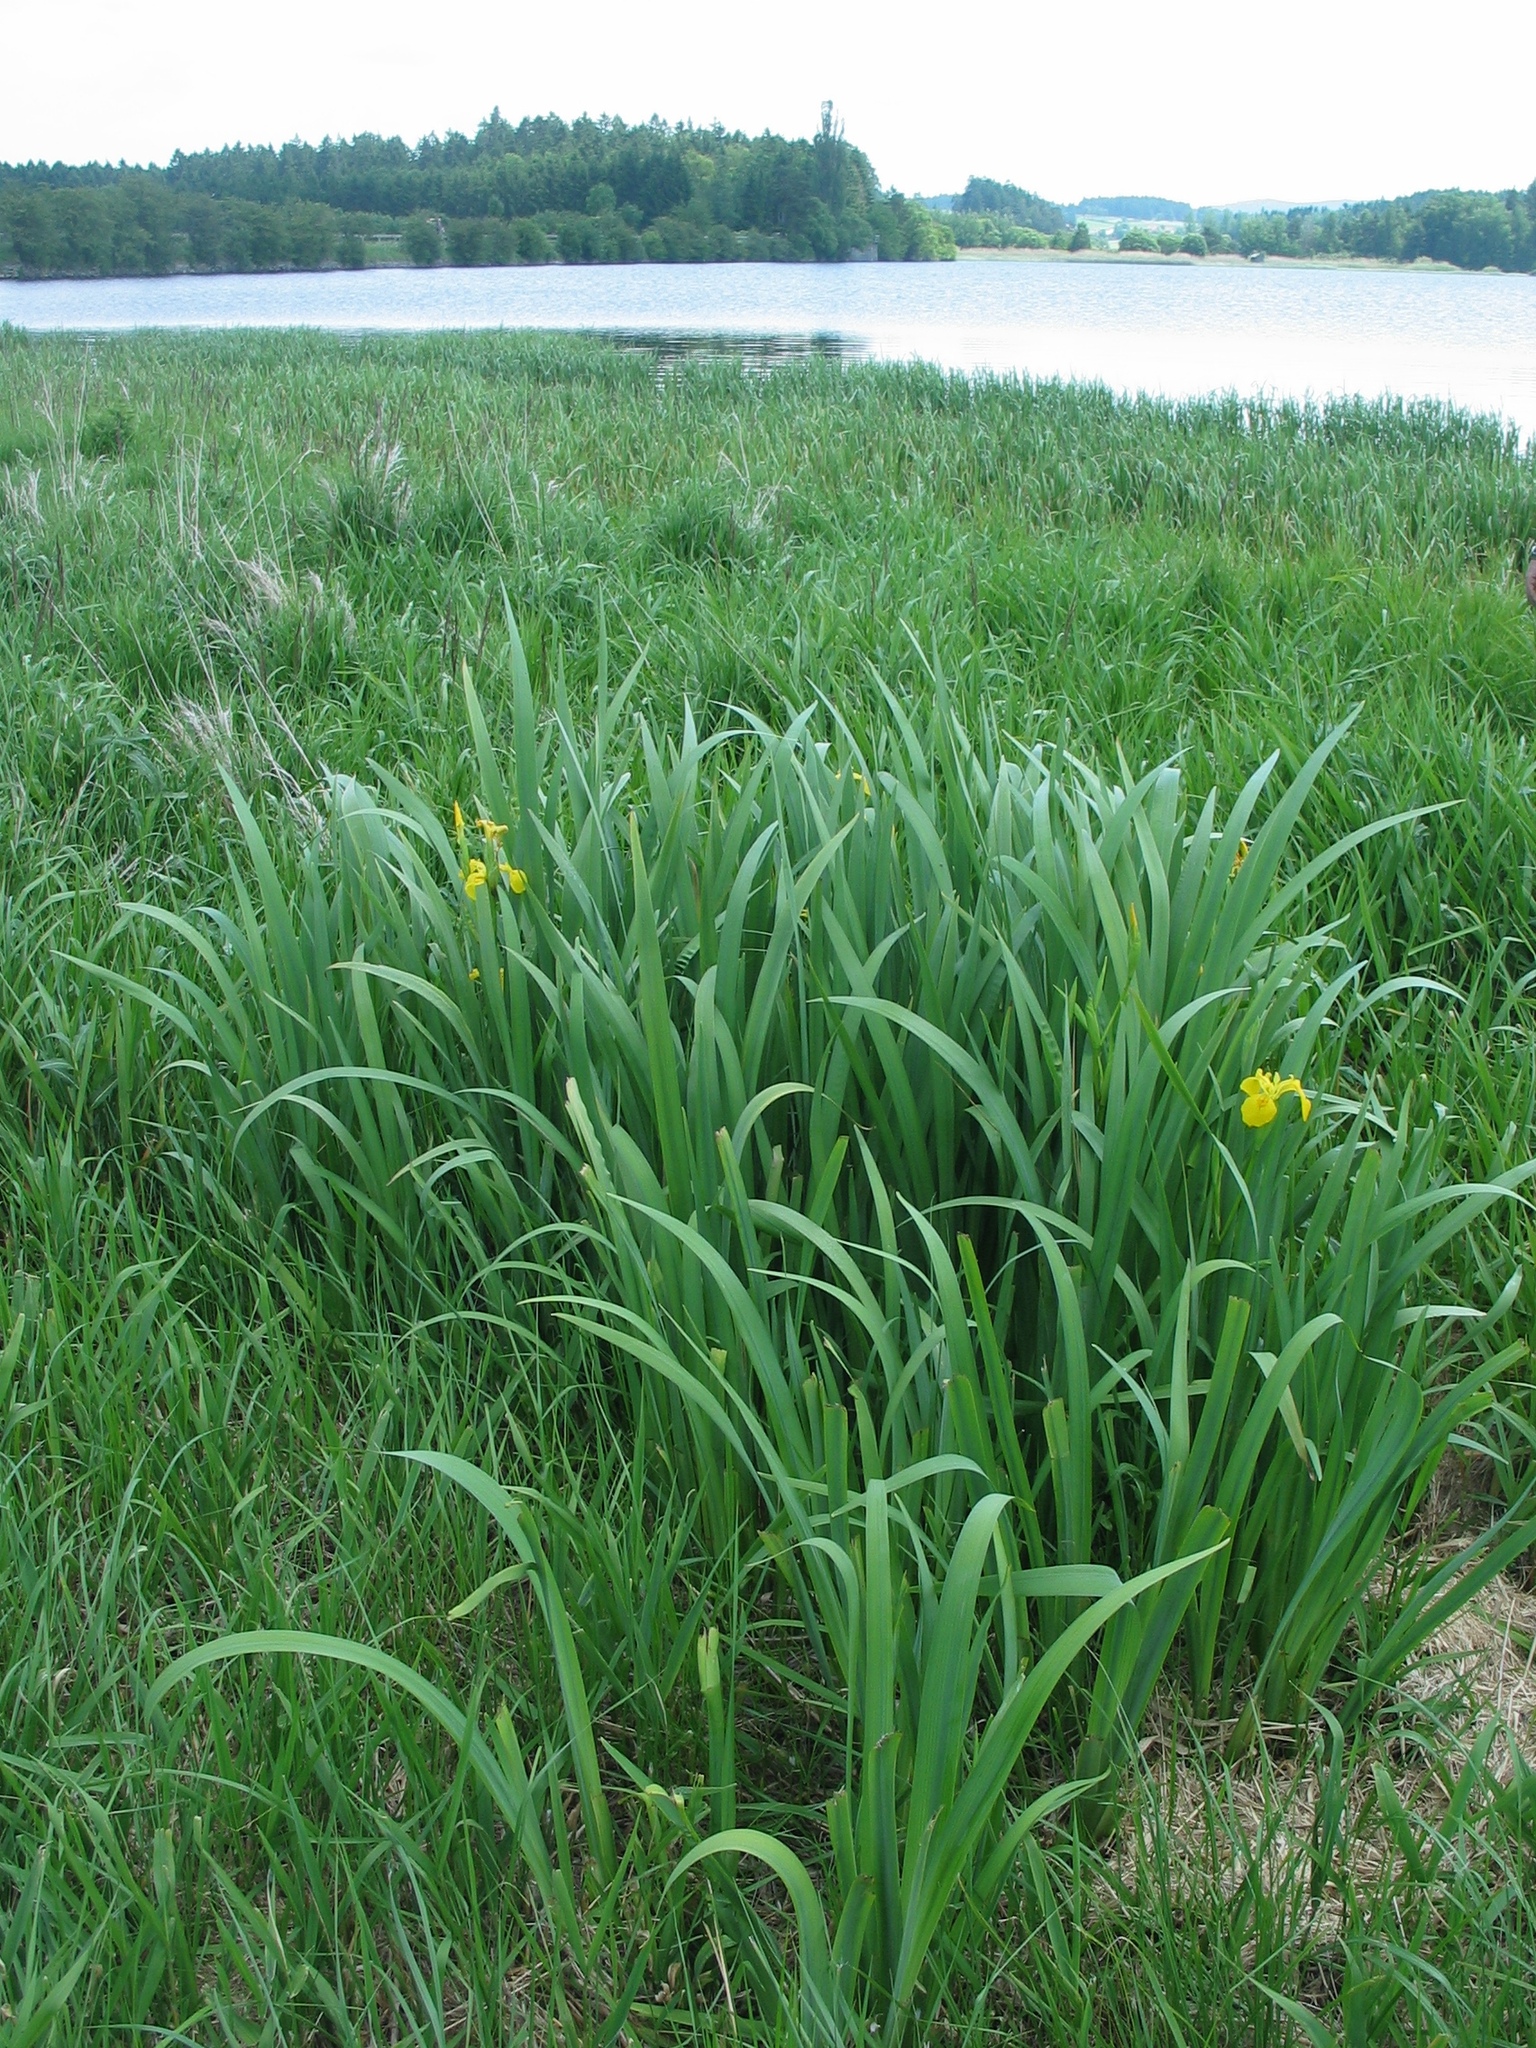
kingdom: Plantae
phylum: Tracheophyta
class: Liliopsida
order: Asparagales
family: Iridaceae
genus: Iris
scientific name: Iris pseudacorus
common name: Yellow flag
